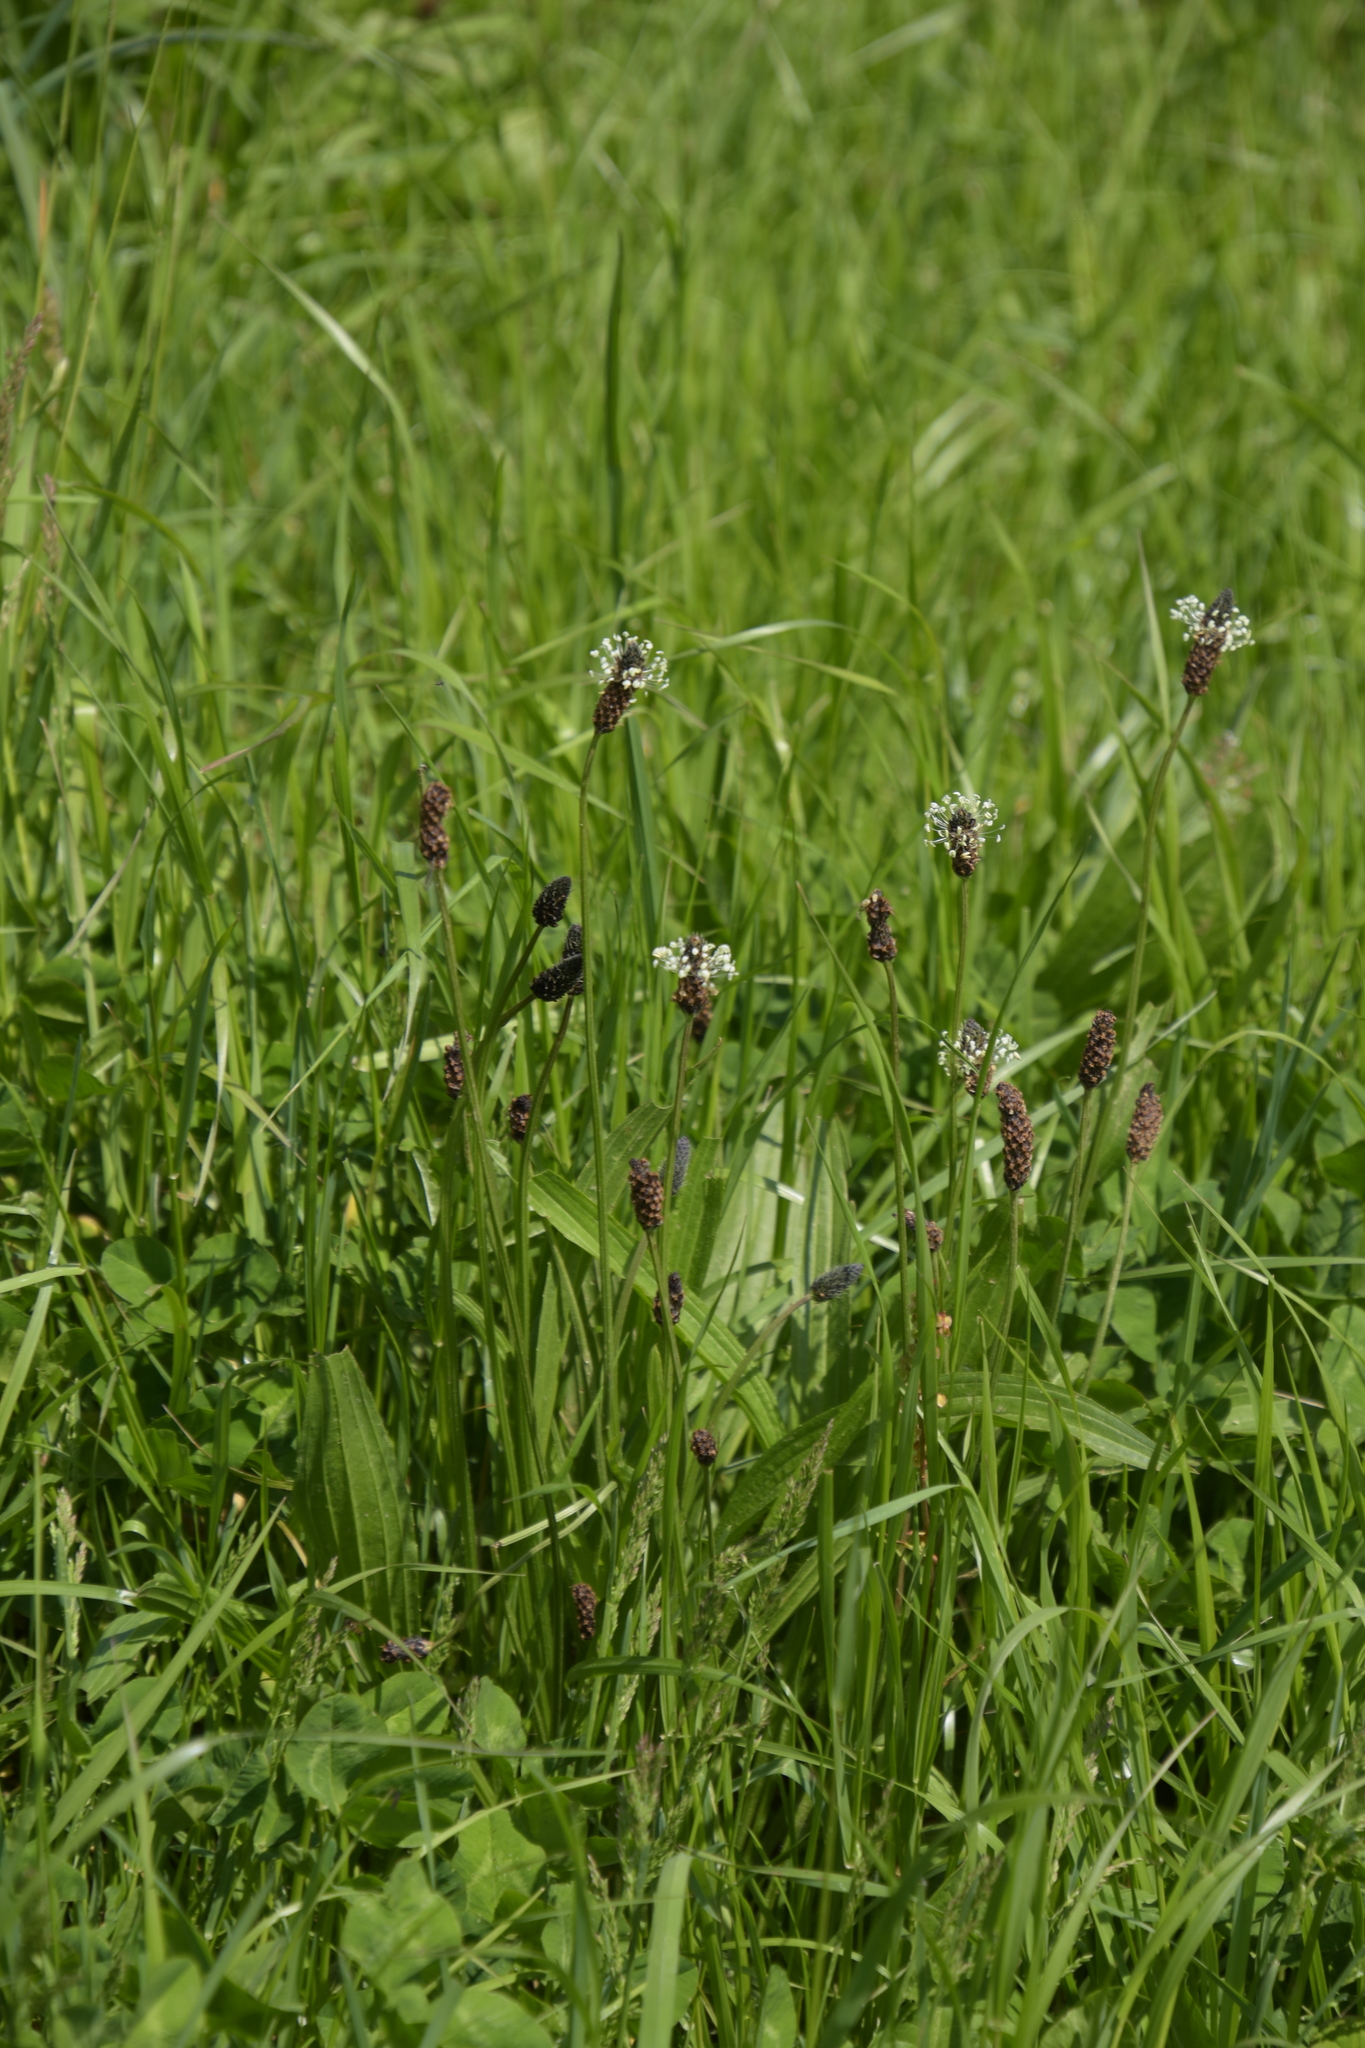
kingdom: Plantae
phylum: Tracheophyta
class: Magnoliopsida
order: Lamiales
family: Plantaginaceae
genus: Plantago
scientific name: Plantago lanceolata
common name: Ribwort plantain
